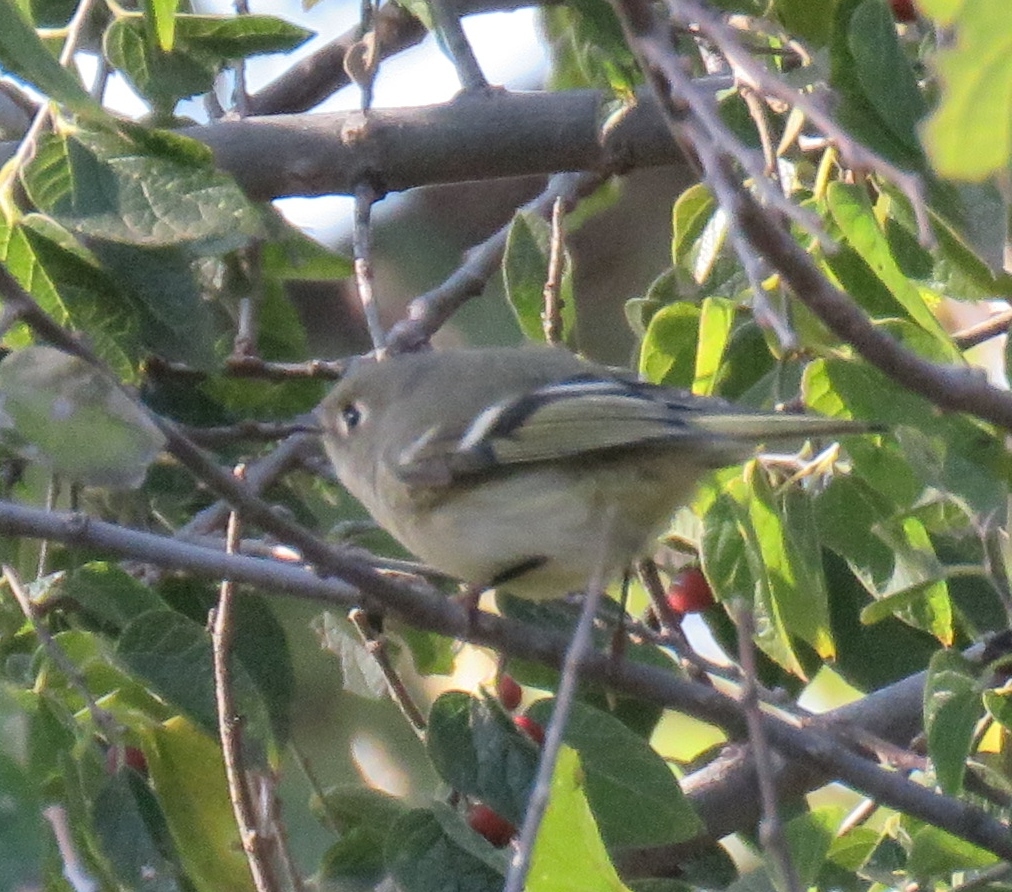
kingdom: Animalia
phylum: Chordata
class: Aves
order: Passeriformes
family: Regulidae
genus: Regulus
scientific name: Regulus calendula
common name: Ruby-crowned kinglet
